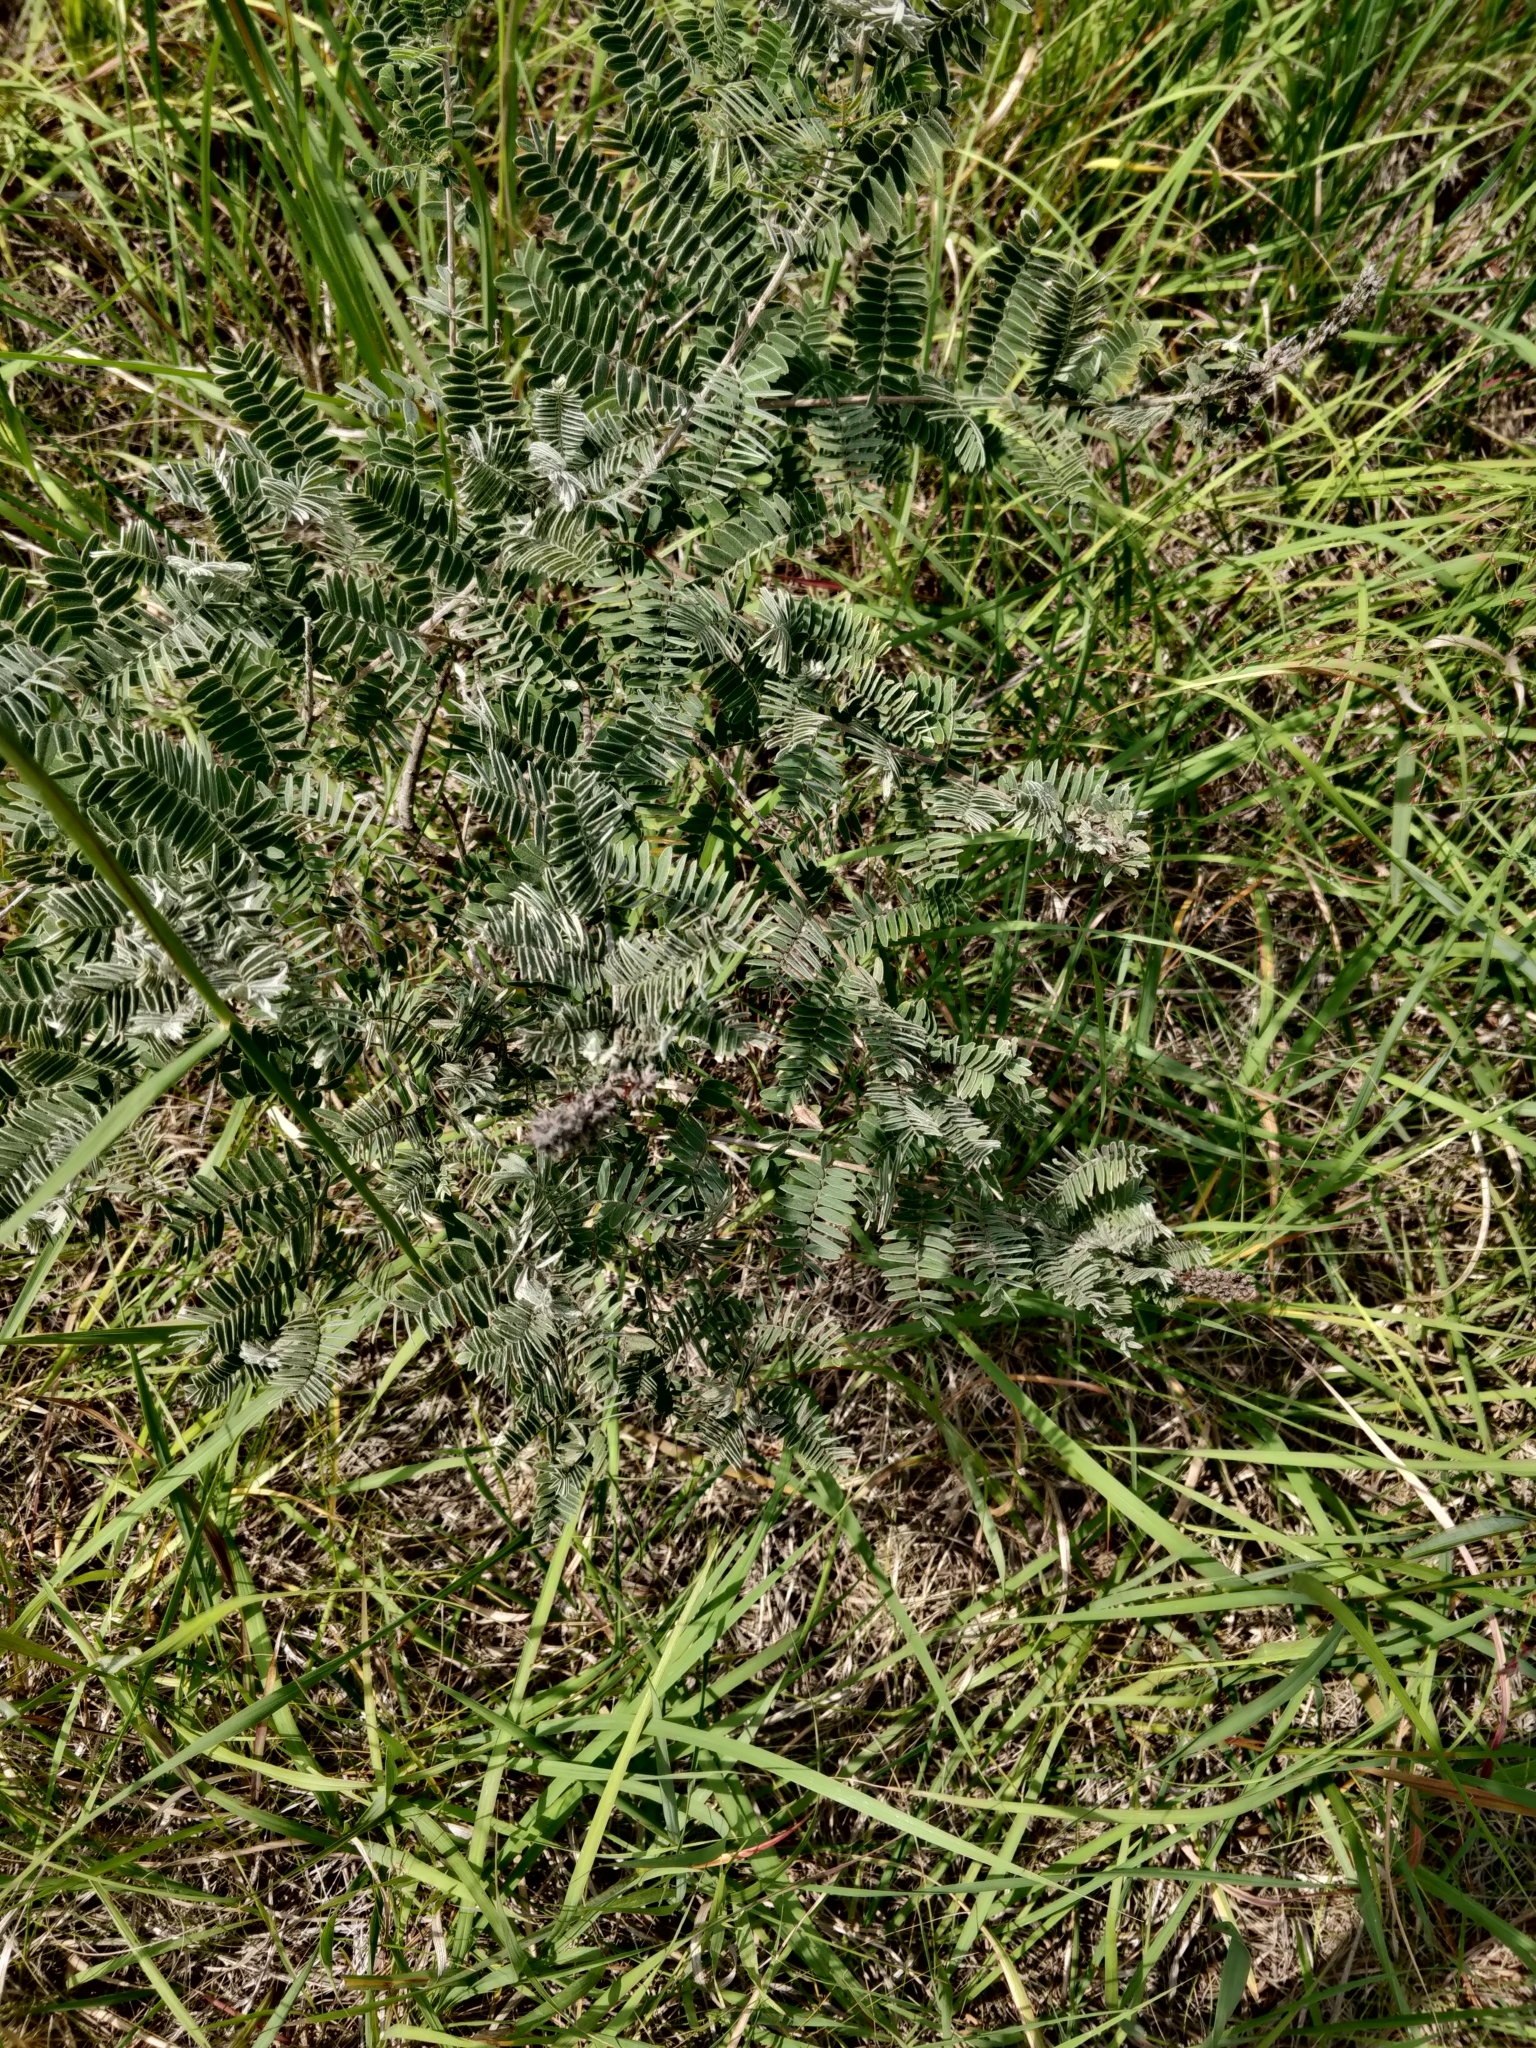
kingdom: Plantae
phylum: Tracheophyta
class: Magnoliopsida
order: Fabales
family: Fabaceae
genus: Amorpha
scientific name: Amorpha canescens
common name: Leadplant
